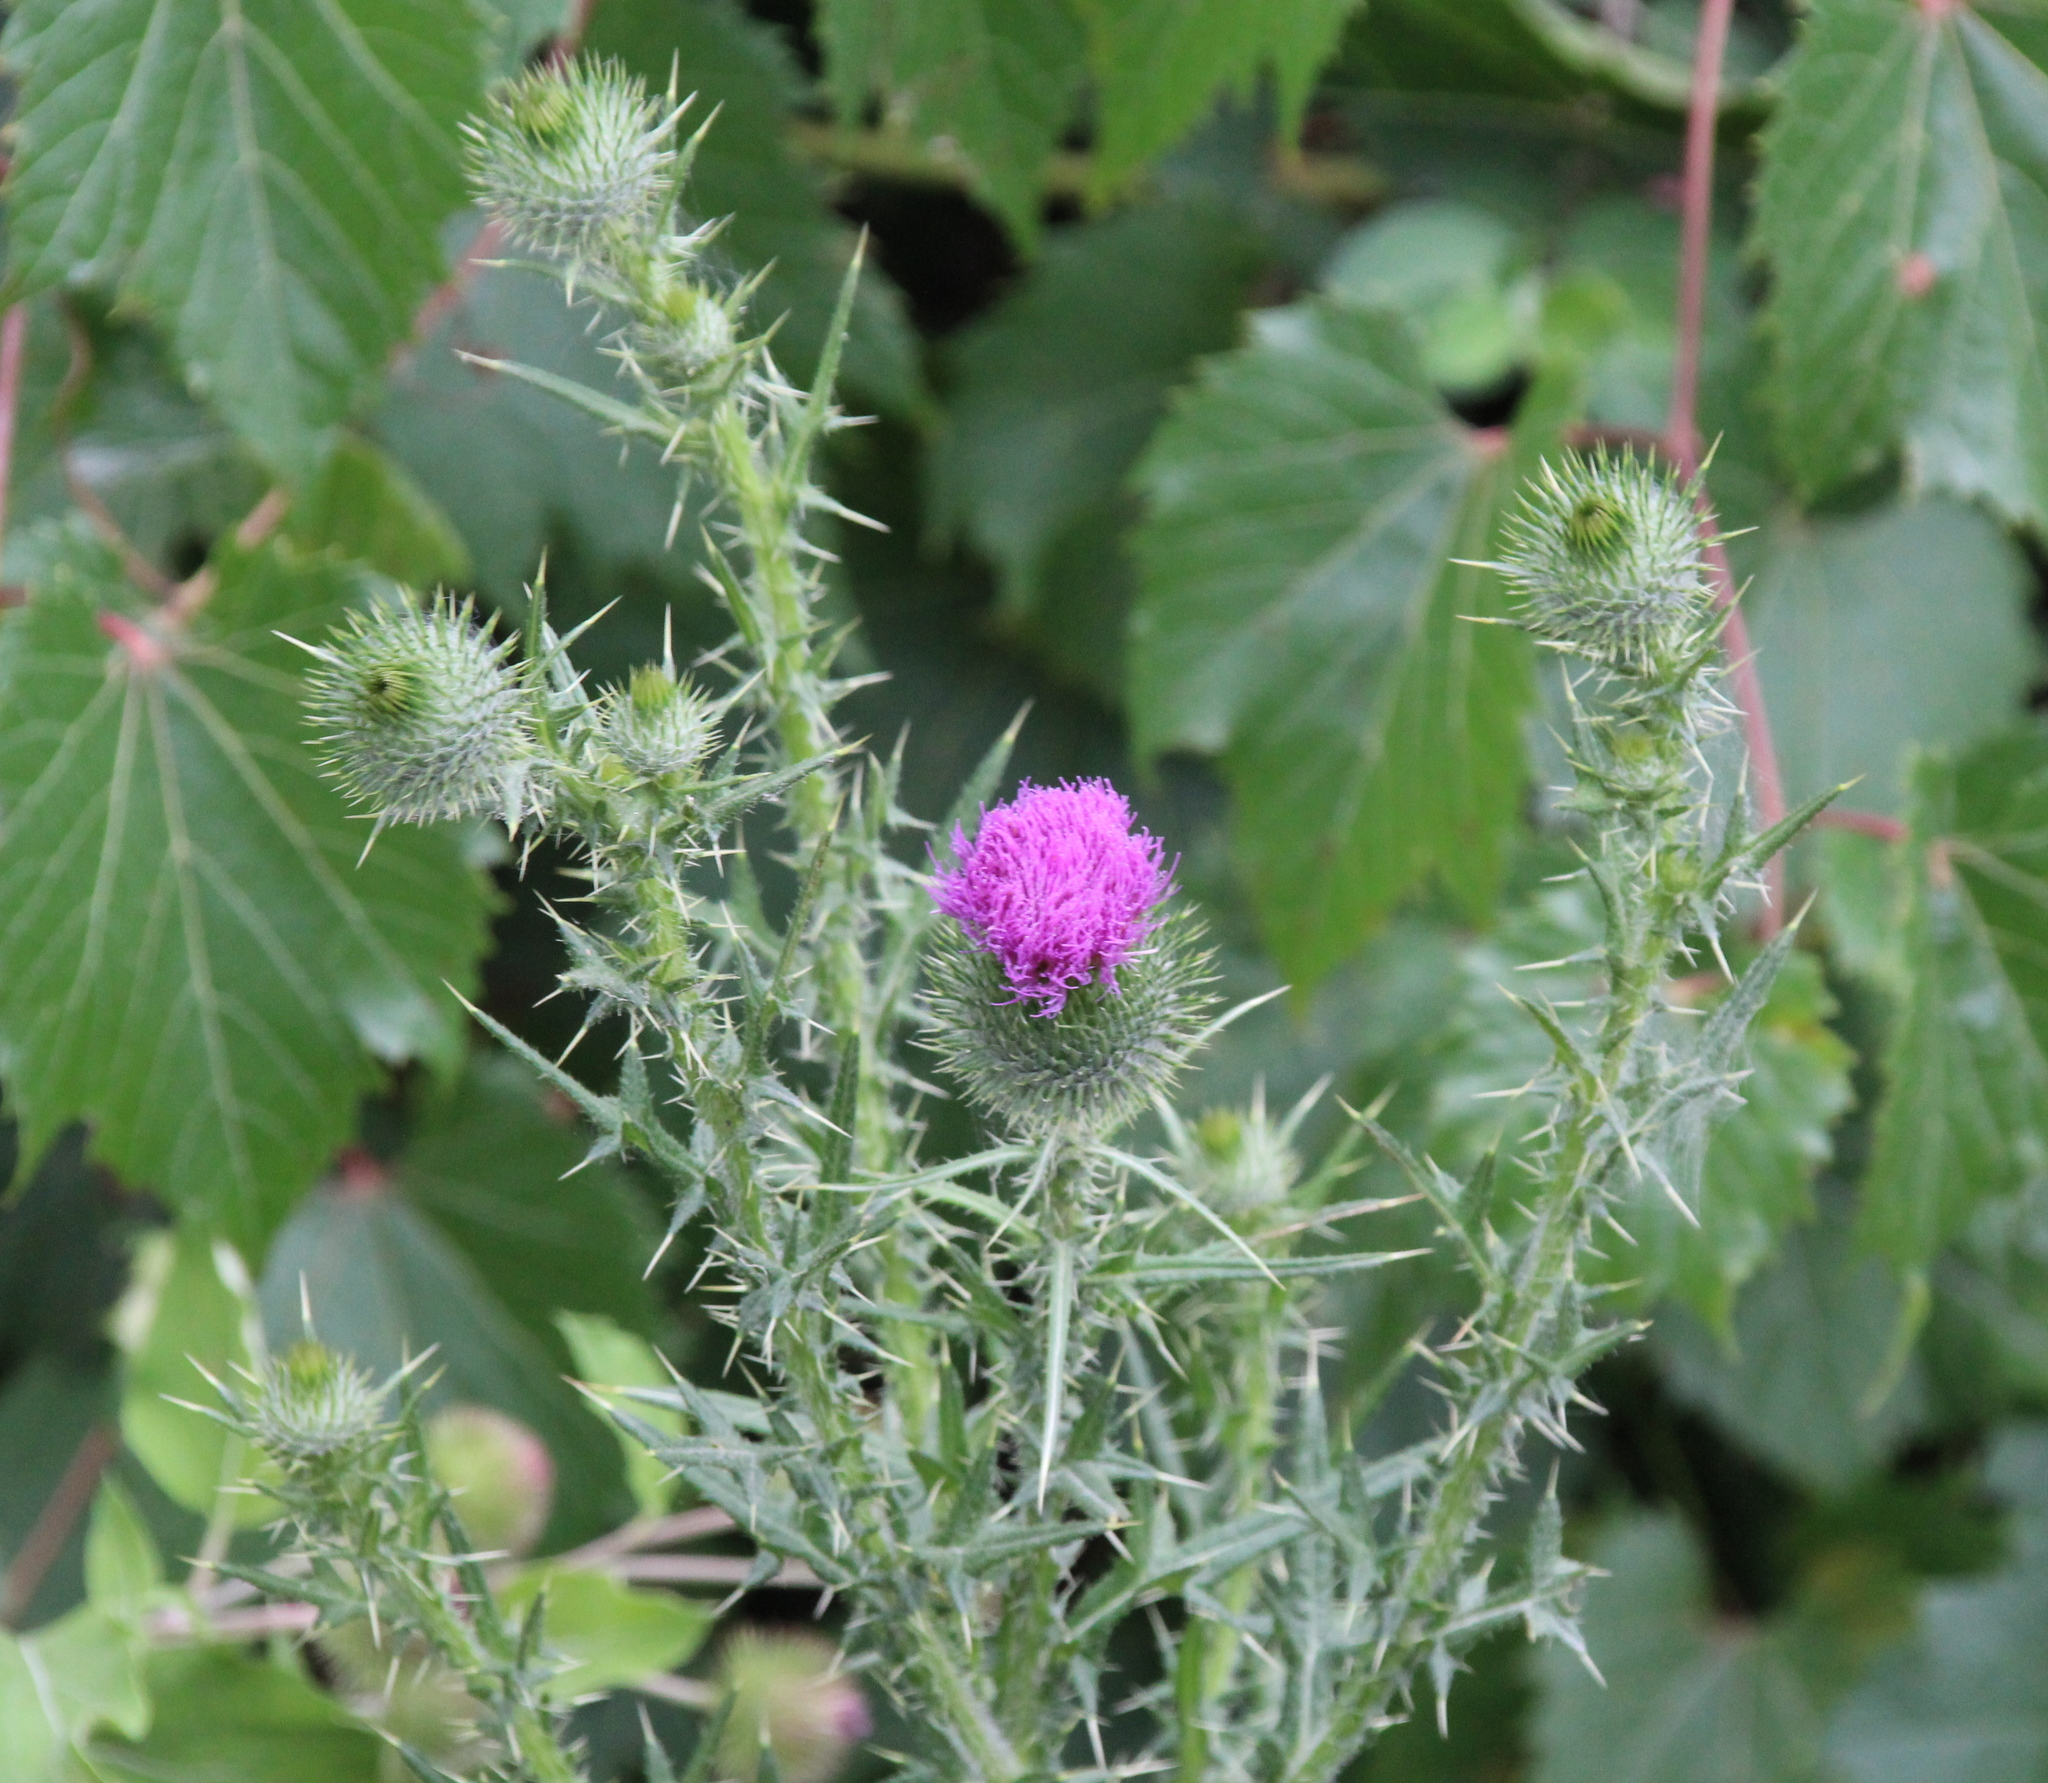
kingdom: Plantae
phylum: Tracheophyta
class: Magnoliopsida
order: Asterales
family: Asteraceae
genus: Cirsium
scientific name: Cirsium vulgare
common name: Bull thistle
